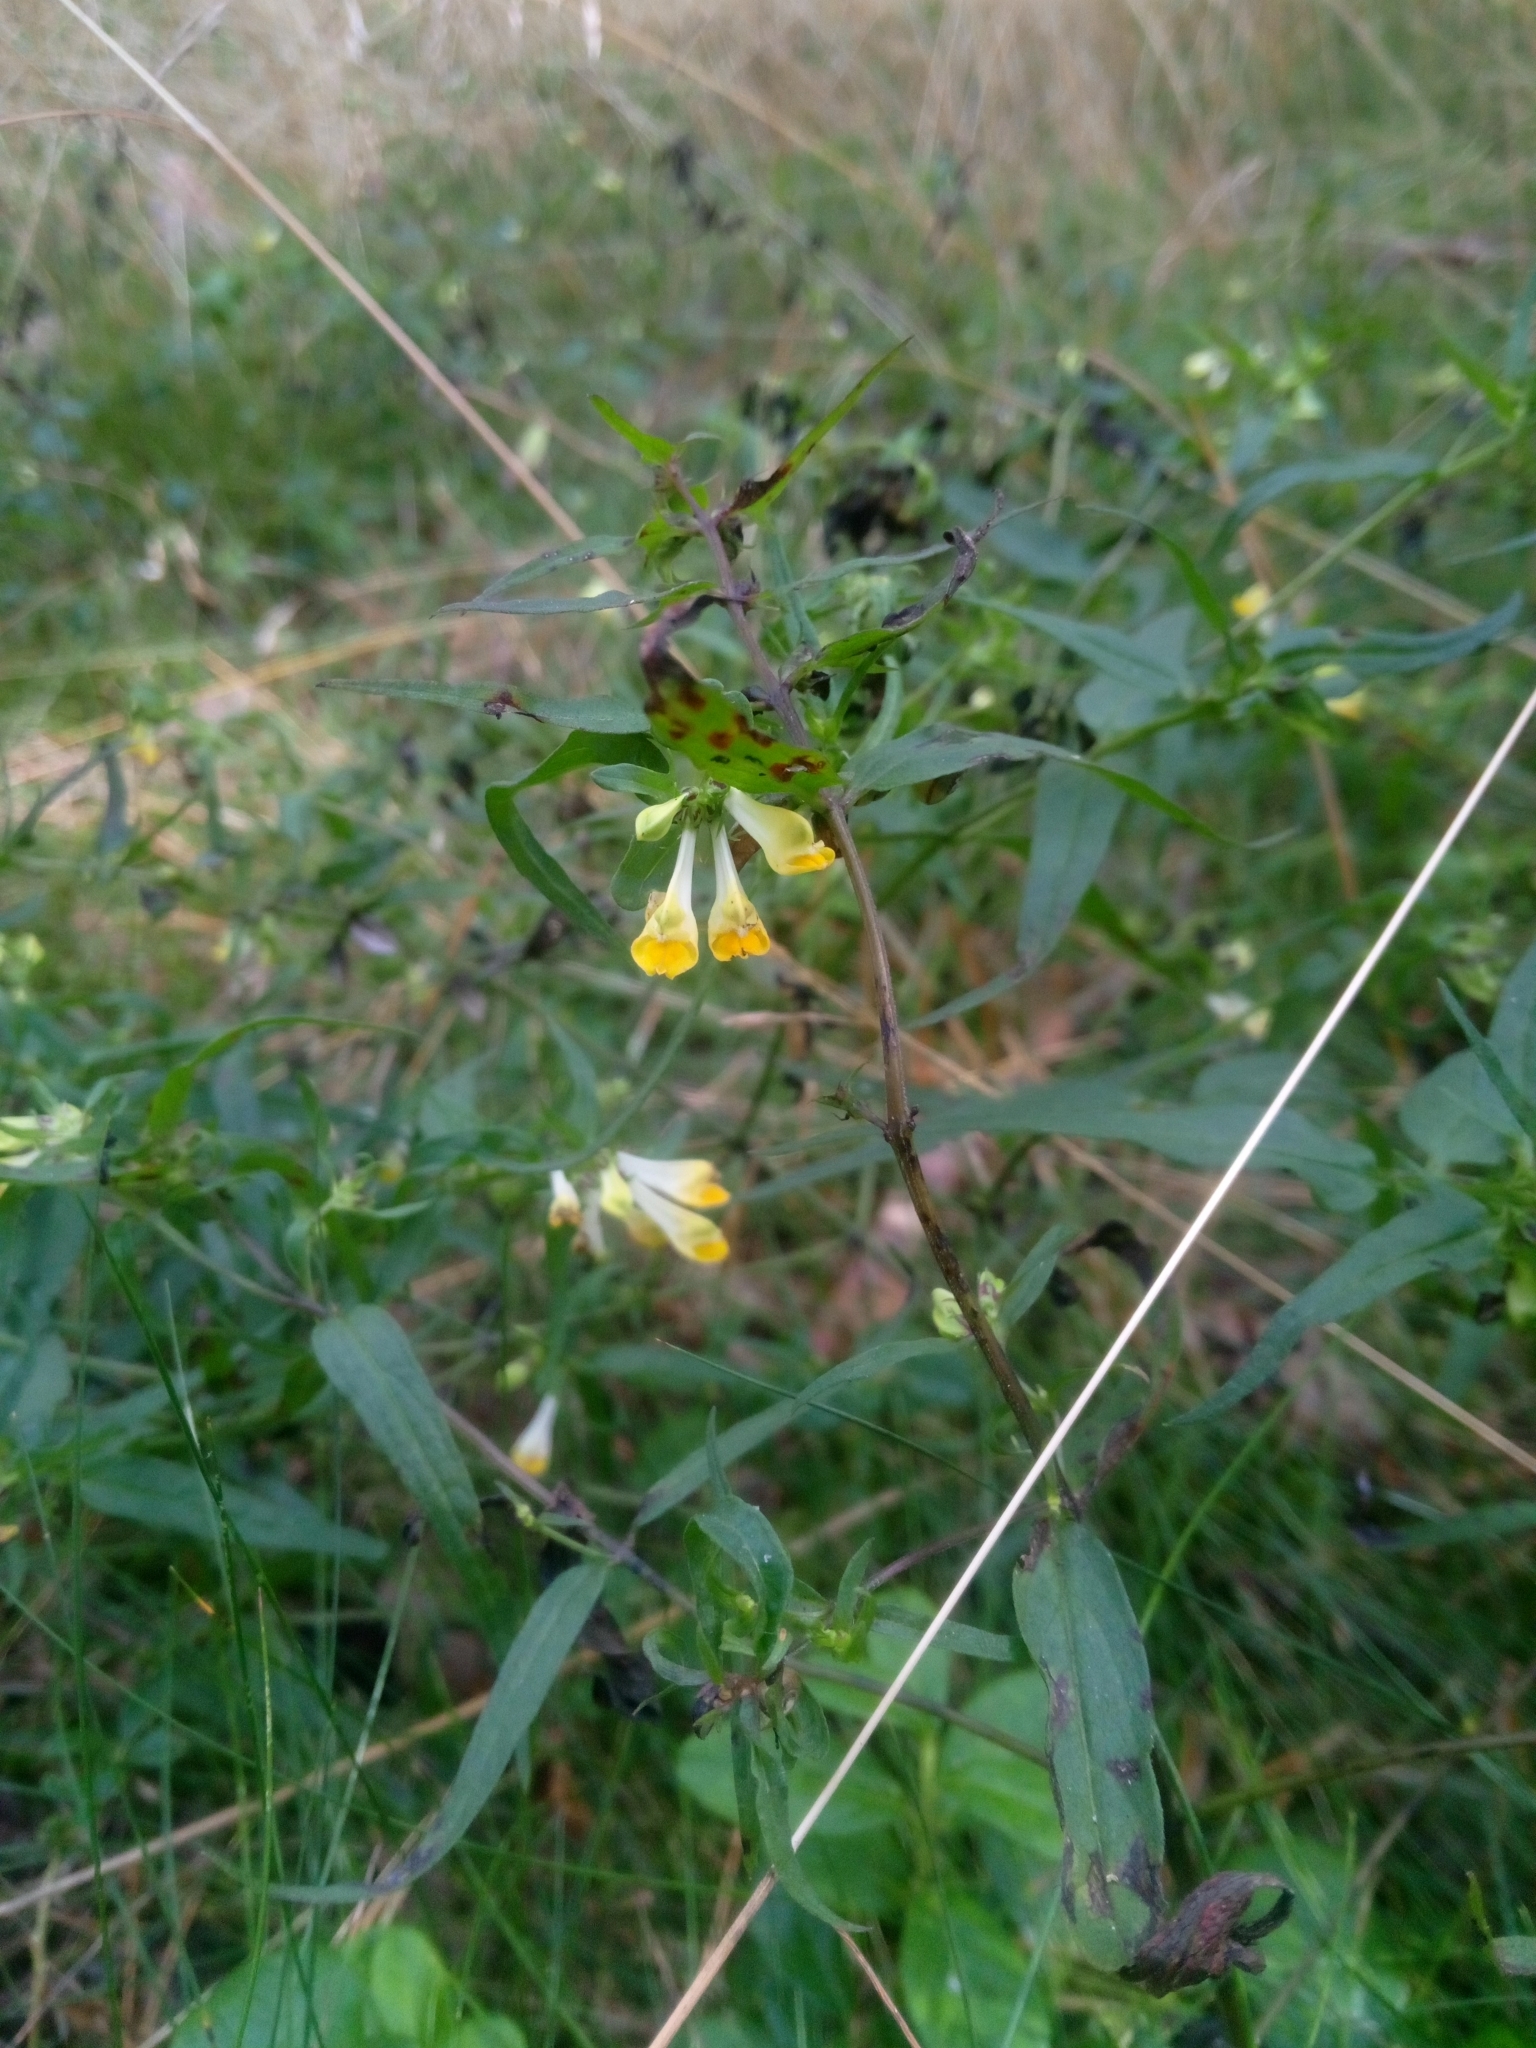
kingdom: Plantae
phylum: Tracheophyta
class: Magnoliopsida
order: Lamiales
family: Orobanchaceae
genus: Melampyrum
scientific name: Melampyrum pratense
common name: Common cow-wheat
